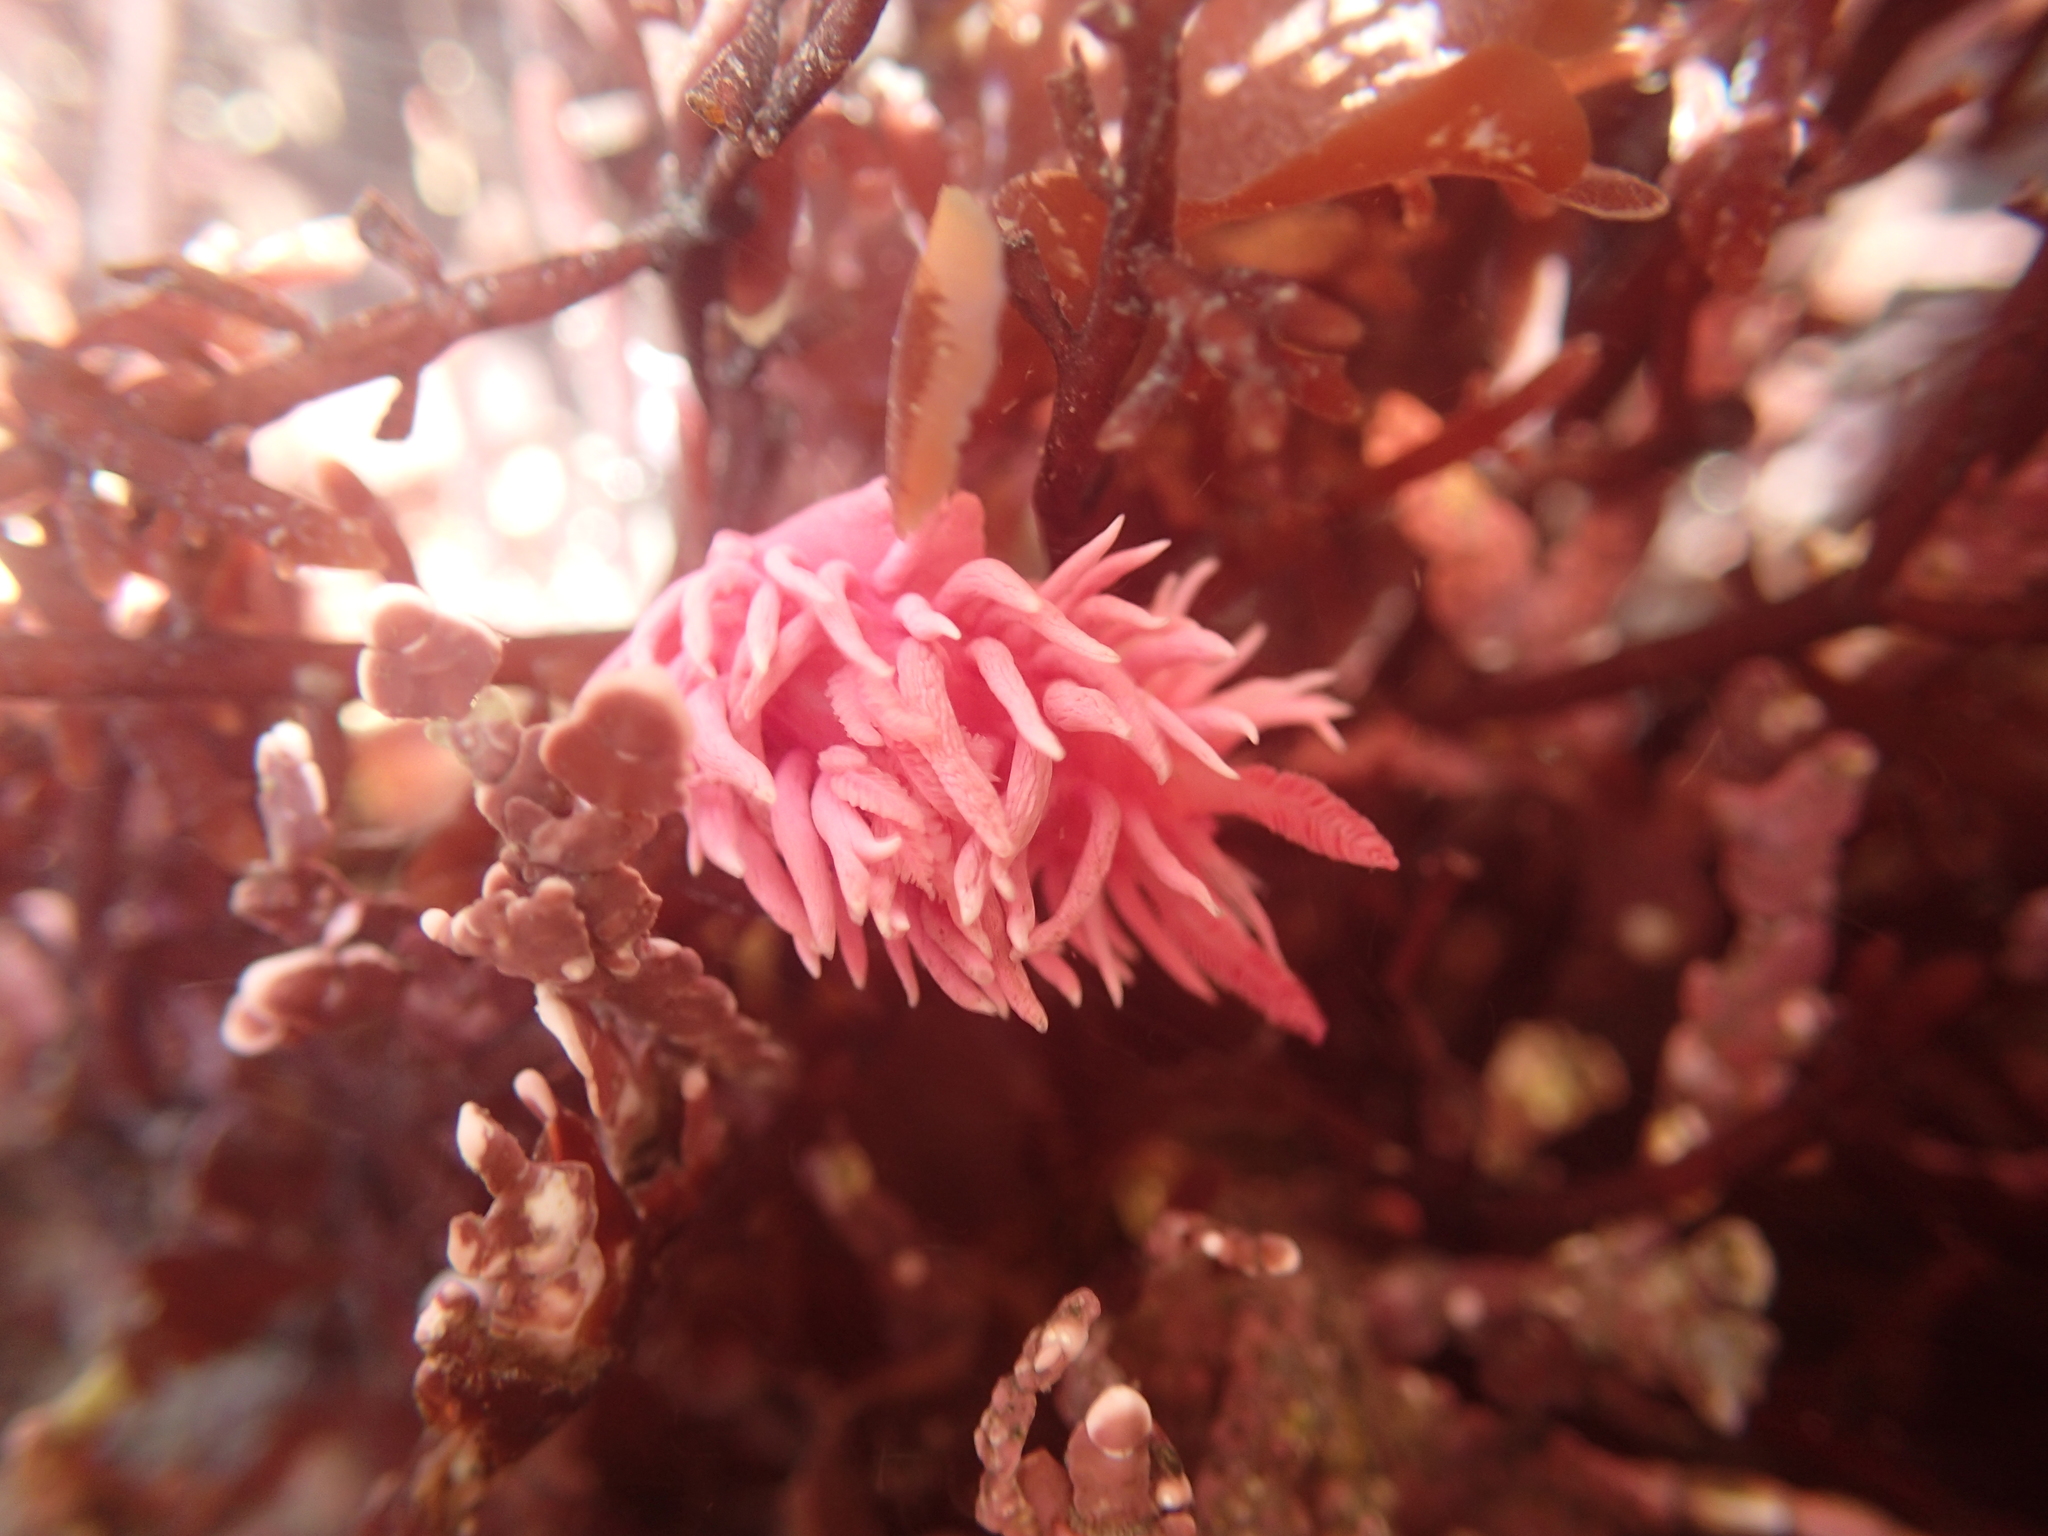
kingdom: Animalia
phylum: Mollusca
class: Gastropoda
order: Nudibranchia
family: Goniodorididae
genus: Okenia
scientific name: Okenia
